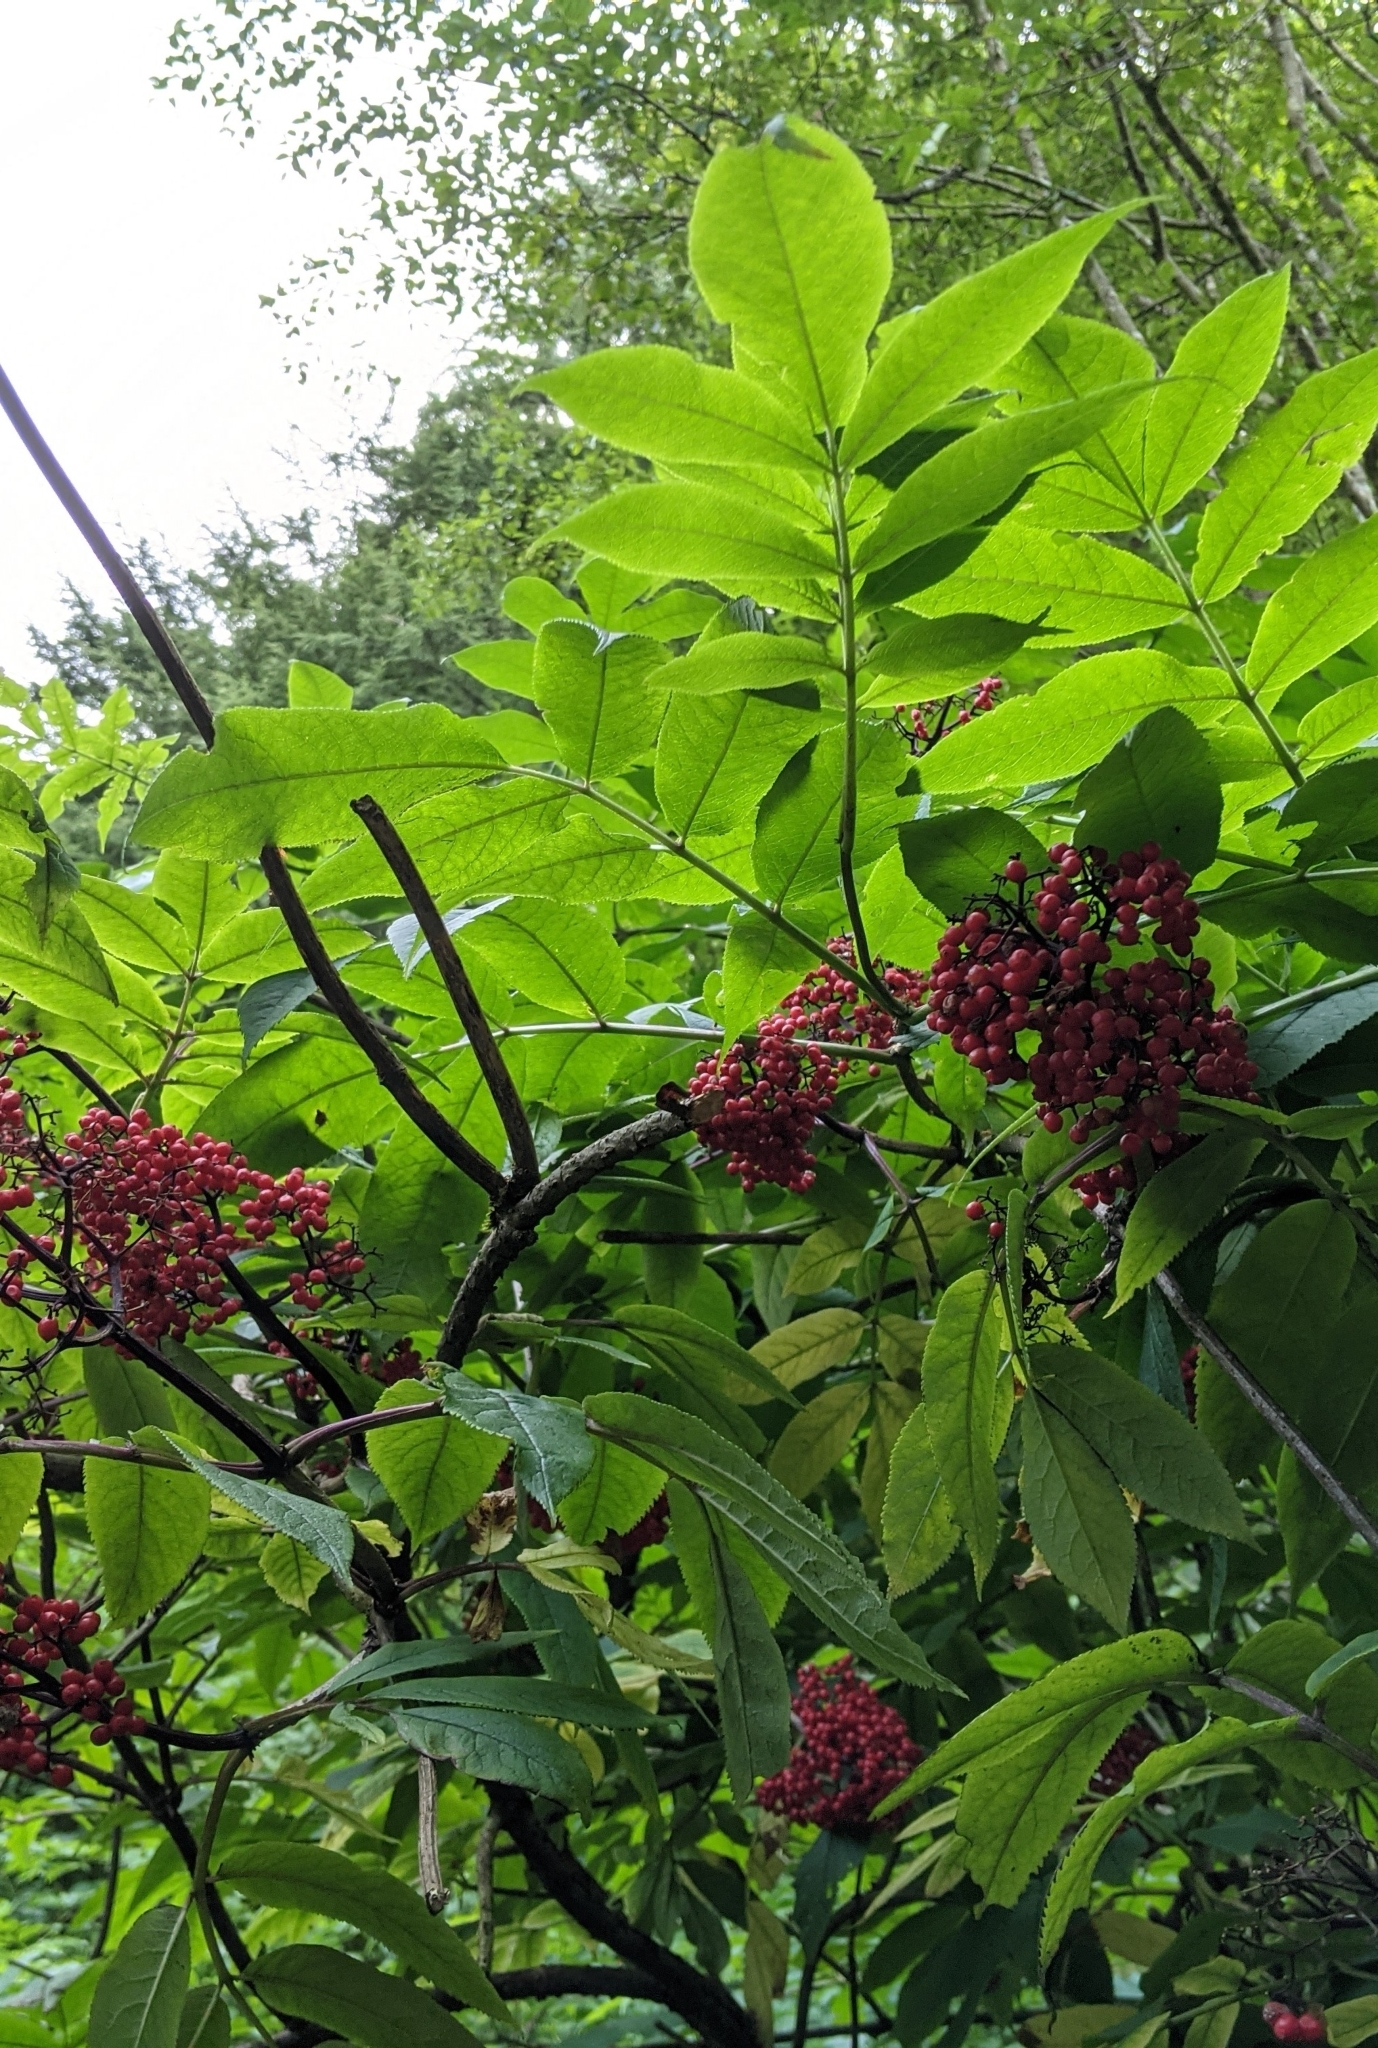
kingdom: Plantae
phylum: Tracheophyta
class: Magnoliopsida
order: Dipsacales
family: Viburnaceae
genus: Sambucus
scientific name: Sambucus racemosa
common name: Red-berried elder
